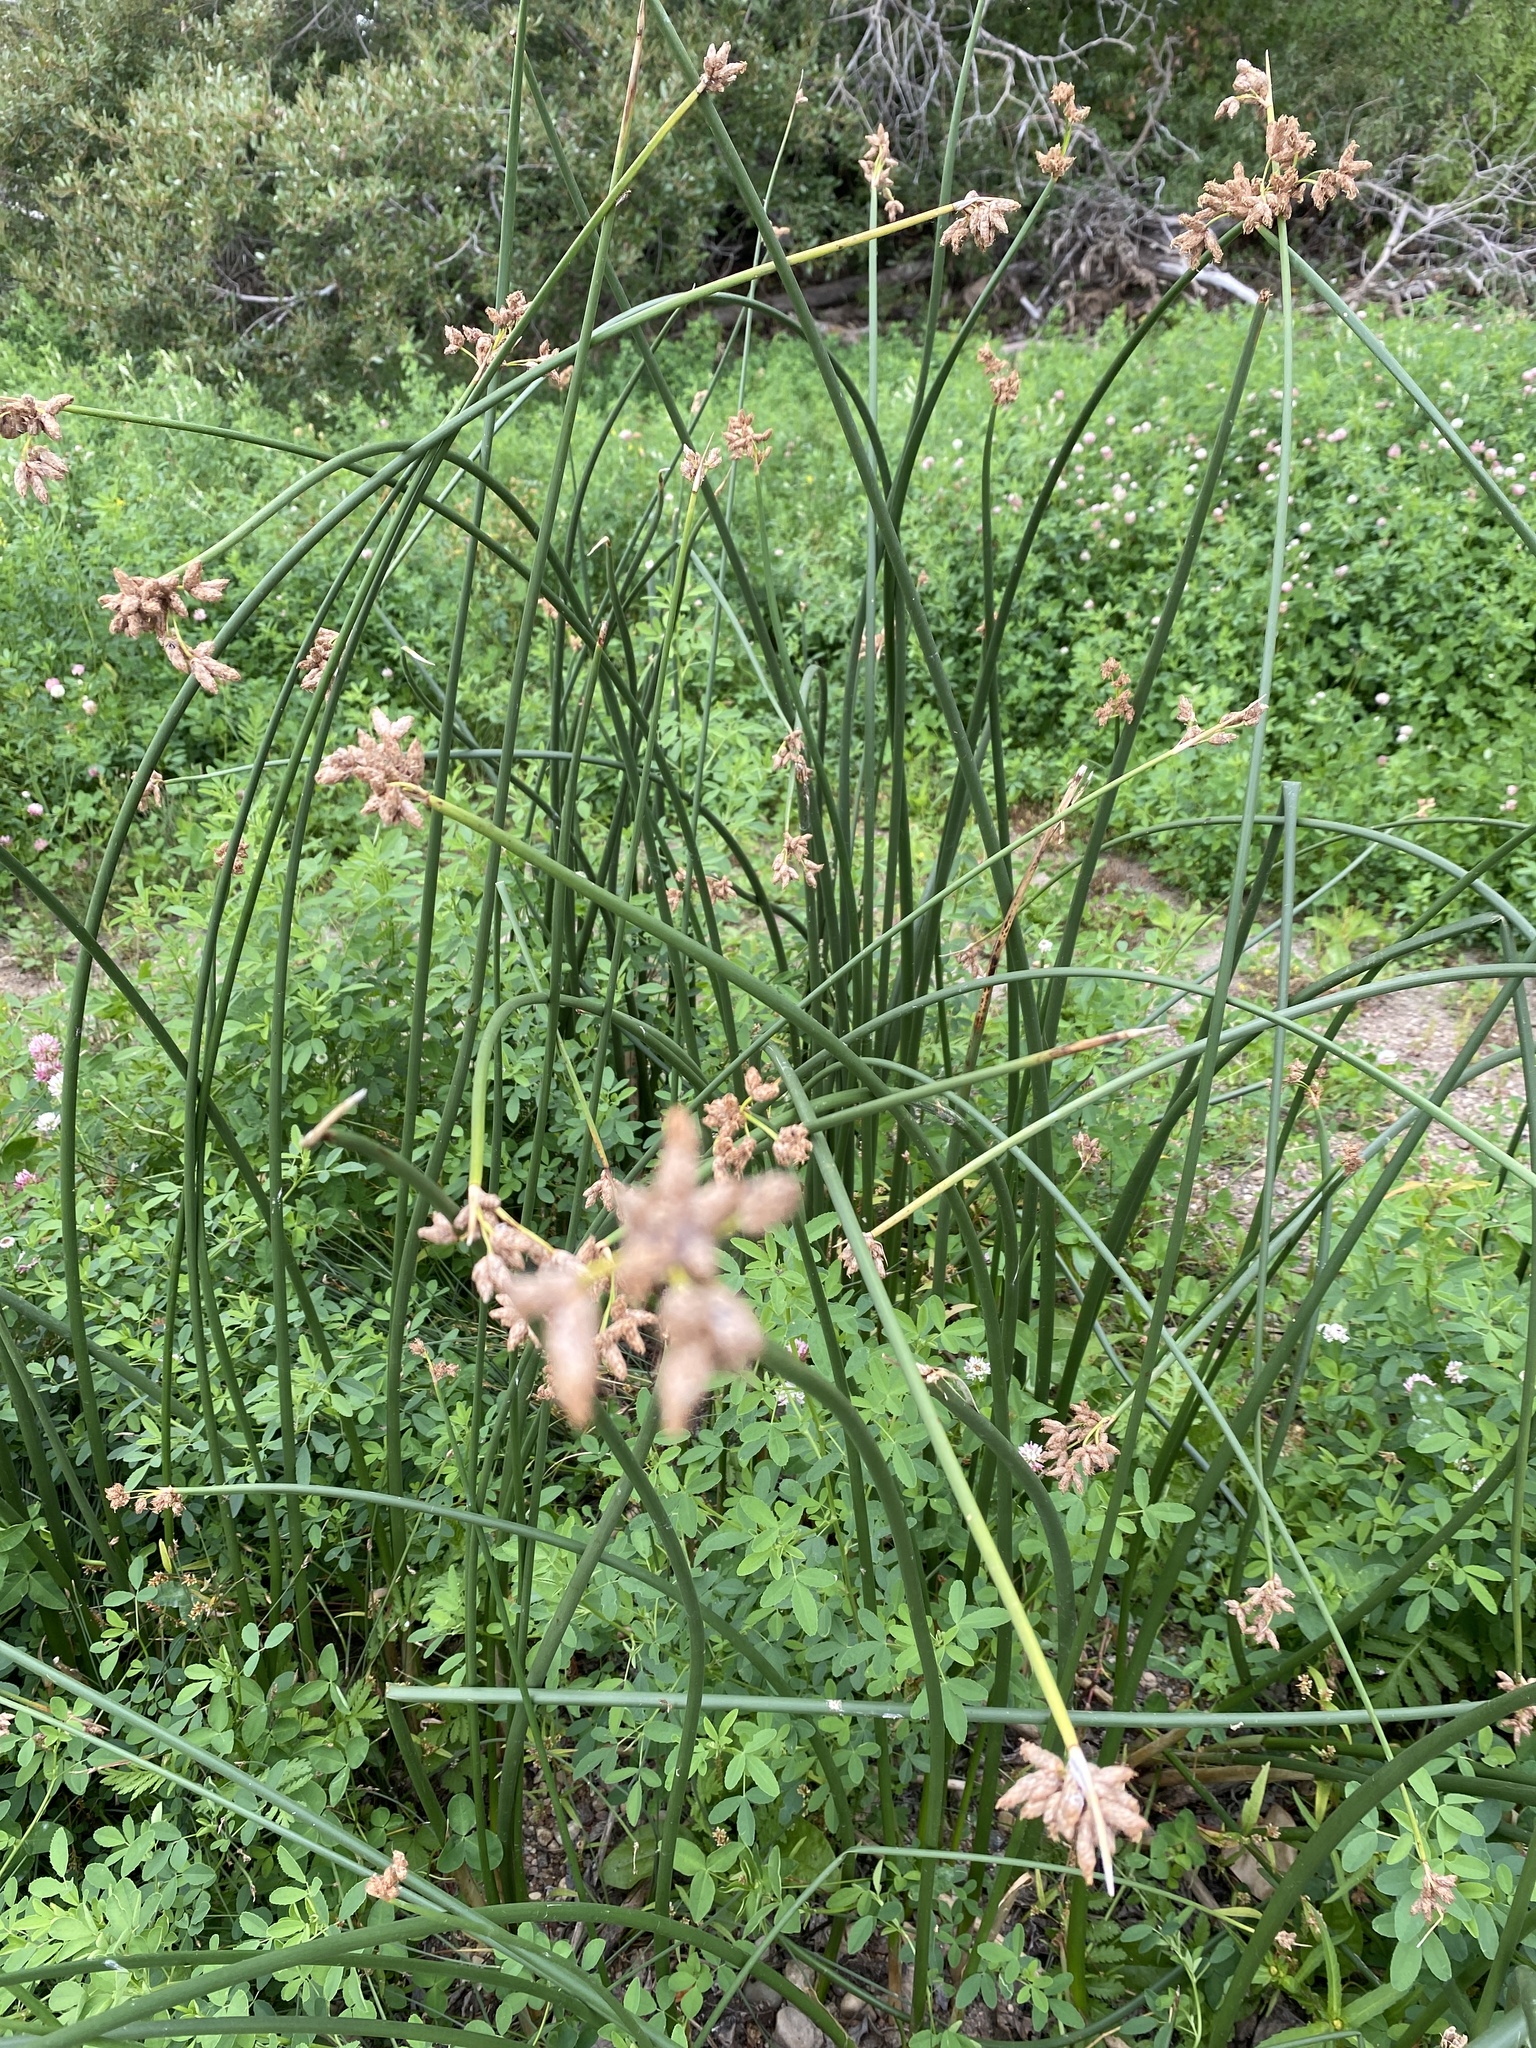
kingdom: Plantae
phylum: Tracheophyta
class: Liliopsida
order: Poales
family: Cyperaceae
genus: Schoenoplectus
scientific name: Schoenoplectus acutus
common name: Hardstem bulrush
